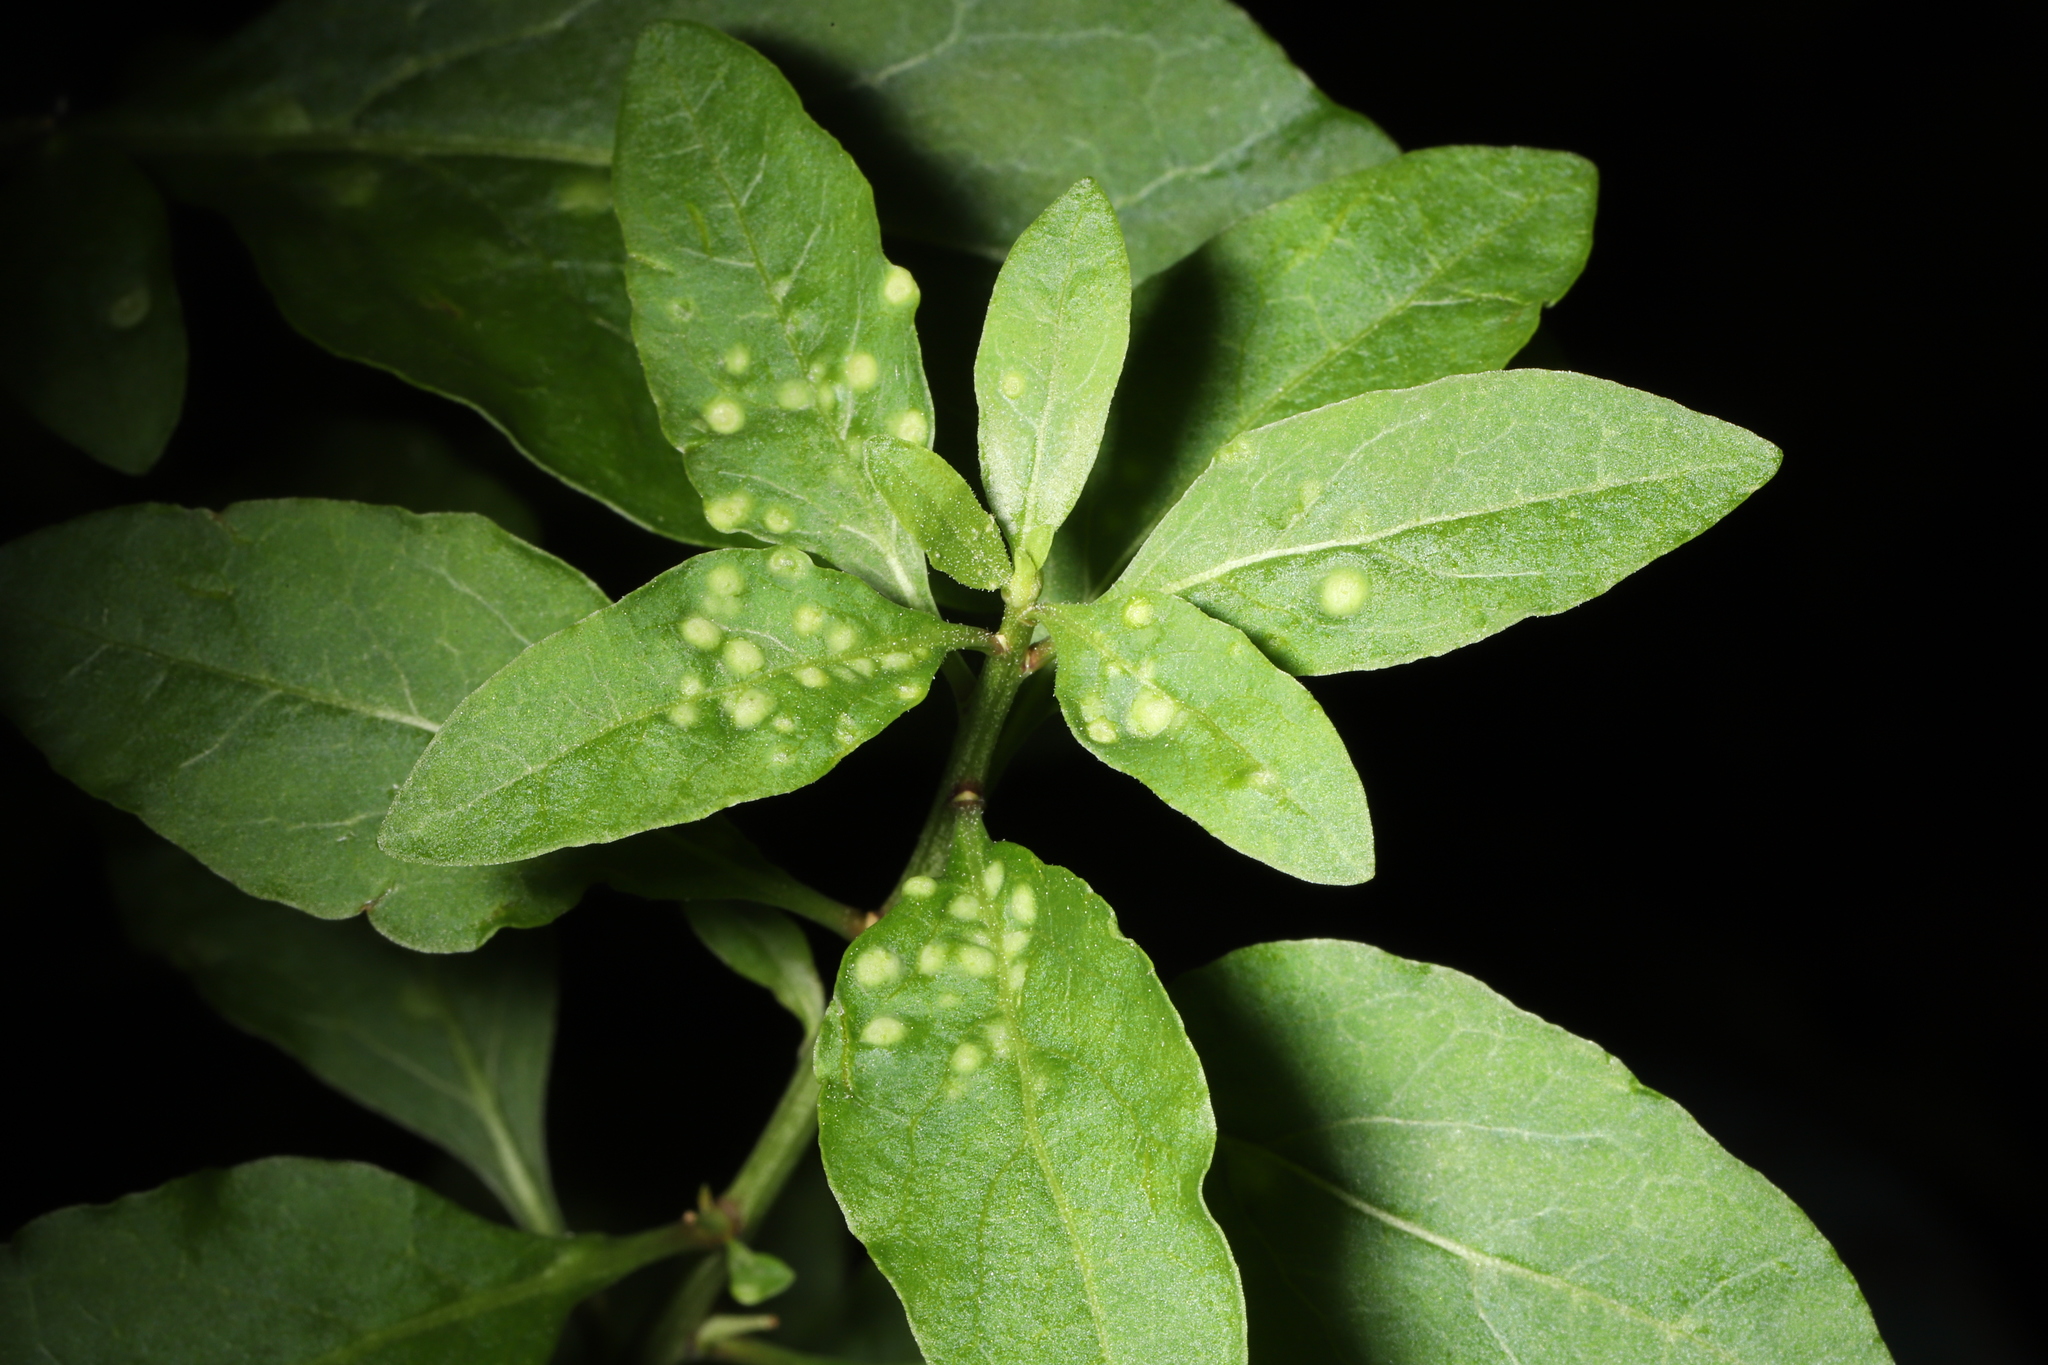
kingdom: Plantae
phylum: Tracheophyta
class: Magnoliopsida
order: Solanales
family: Solanaceae
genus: Lycium
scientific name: Lycium barbarum
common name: Duke of argyll's teaplant
